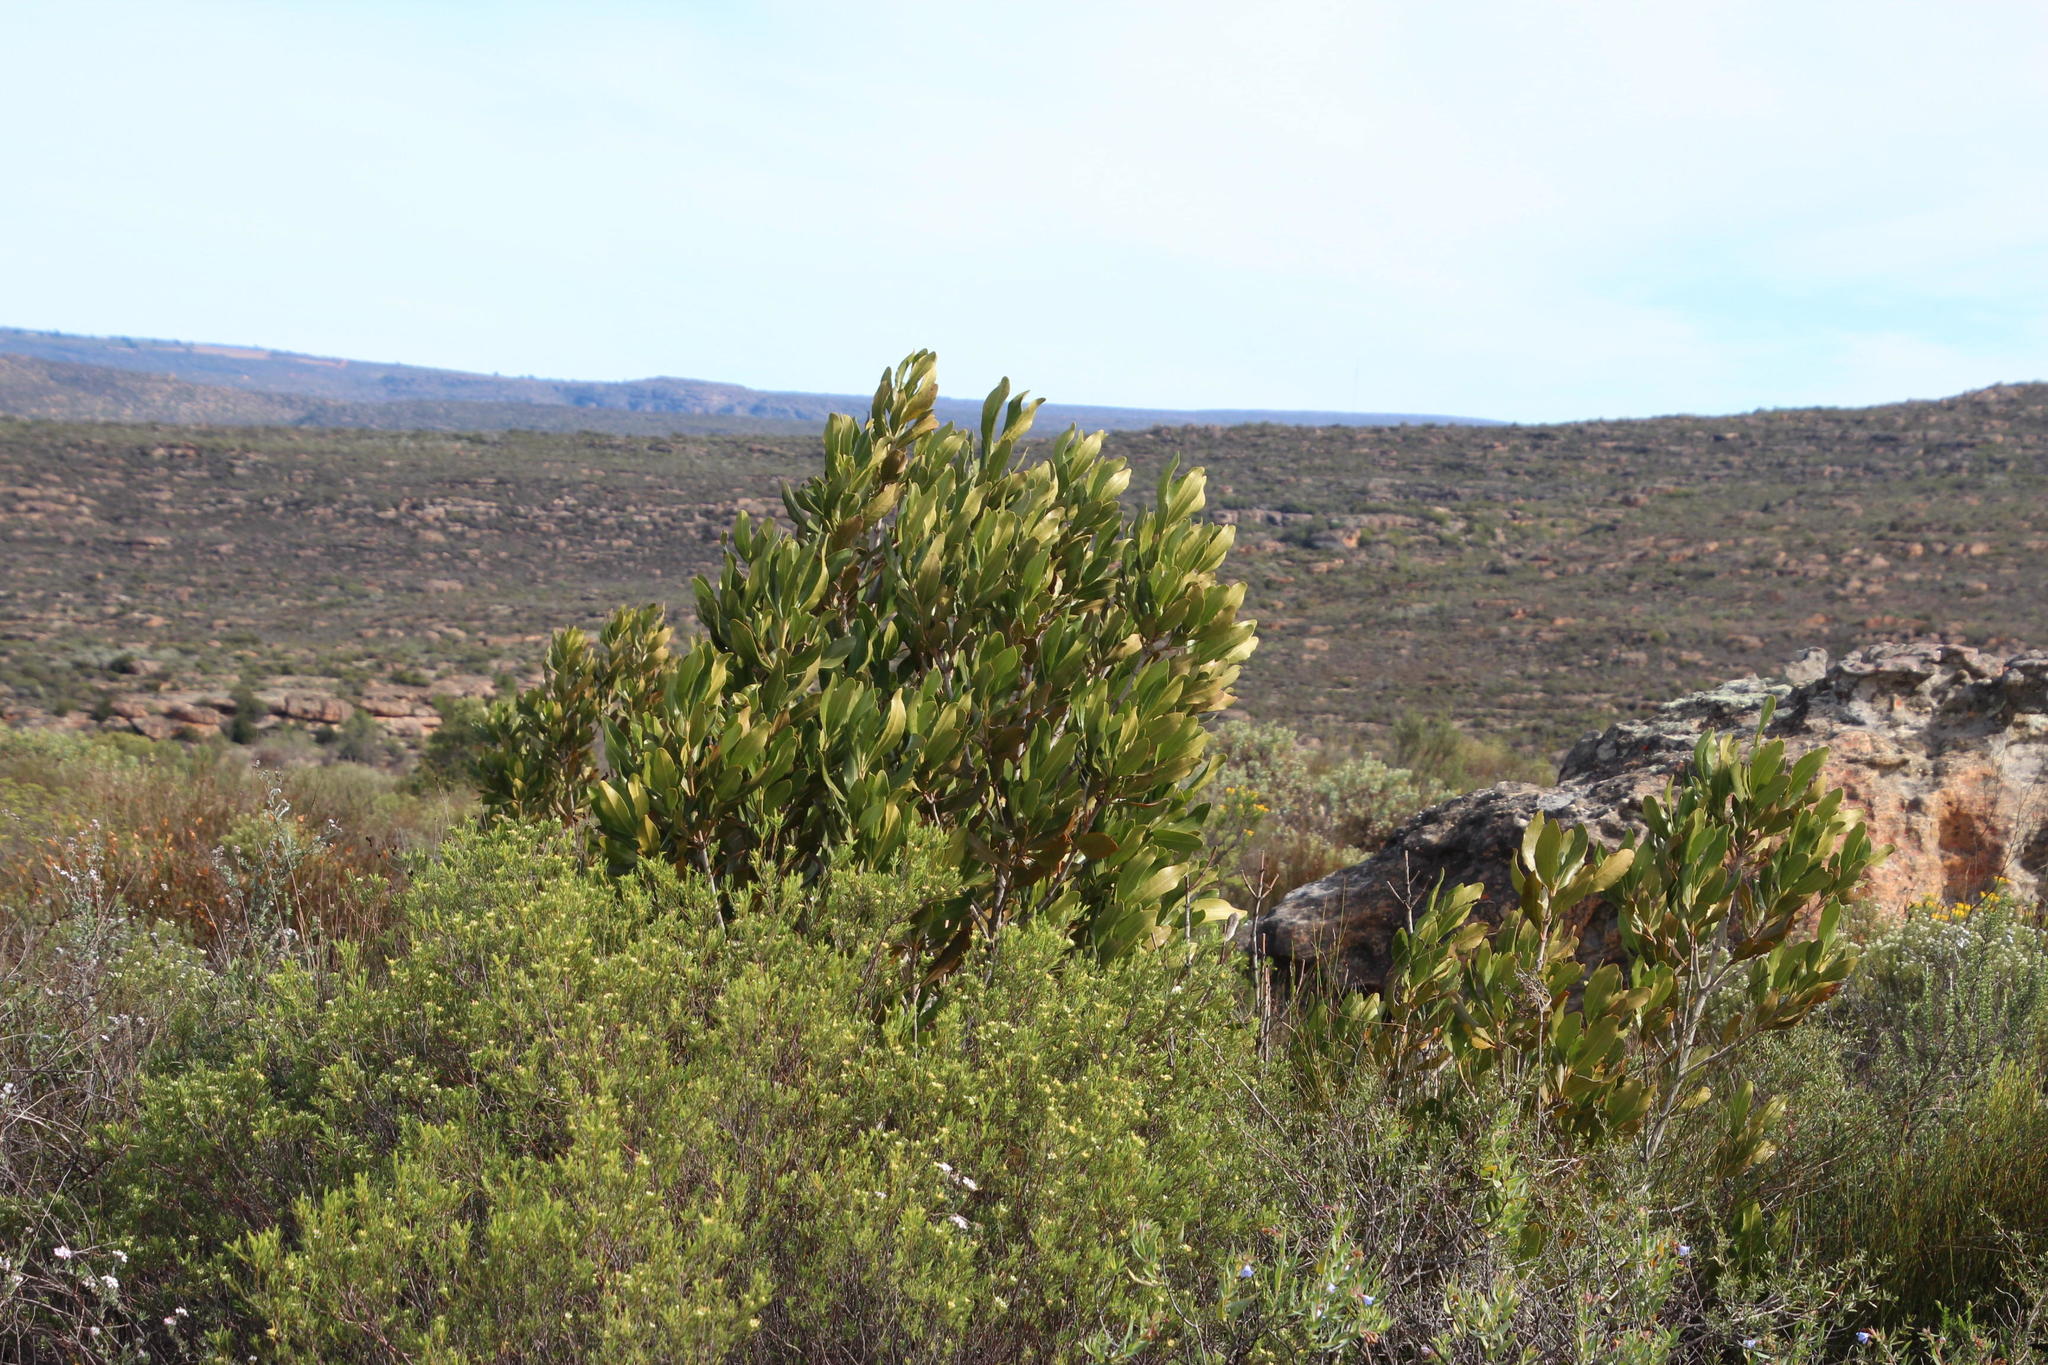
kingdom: Plantae
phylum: Tracheophyta
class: Magnoliopsida
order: Malpighiales
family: Picrodendraceae
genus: Hyaenanche
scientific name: Hyaenanche globosa
